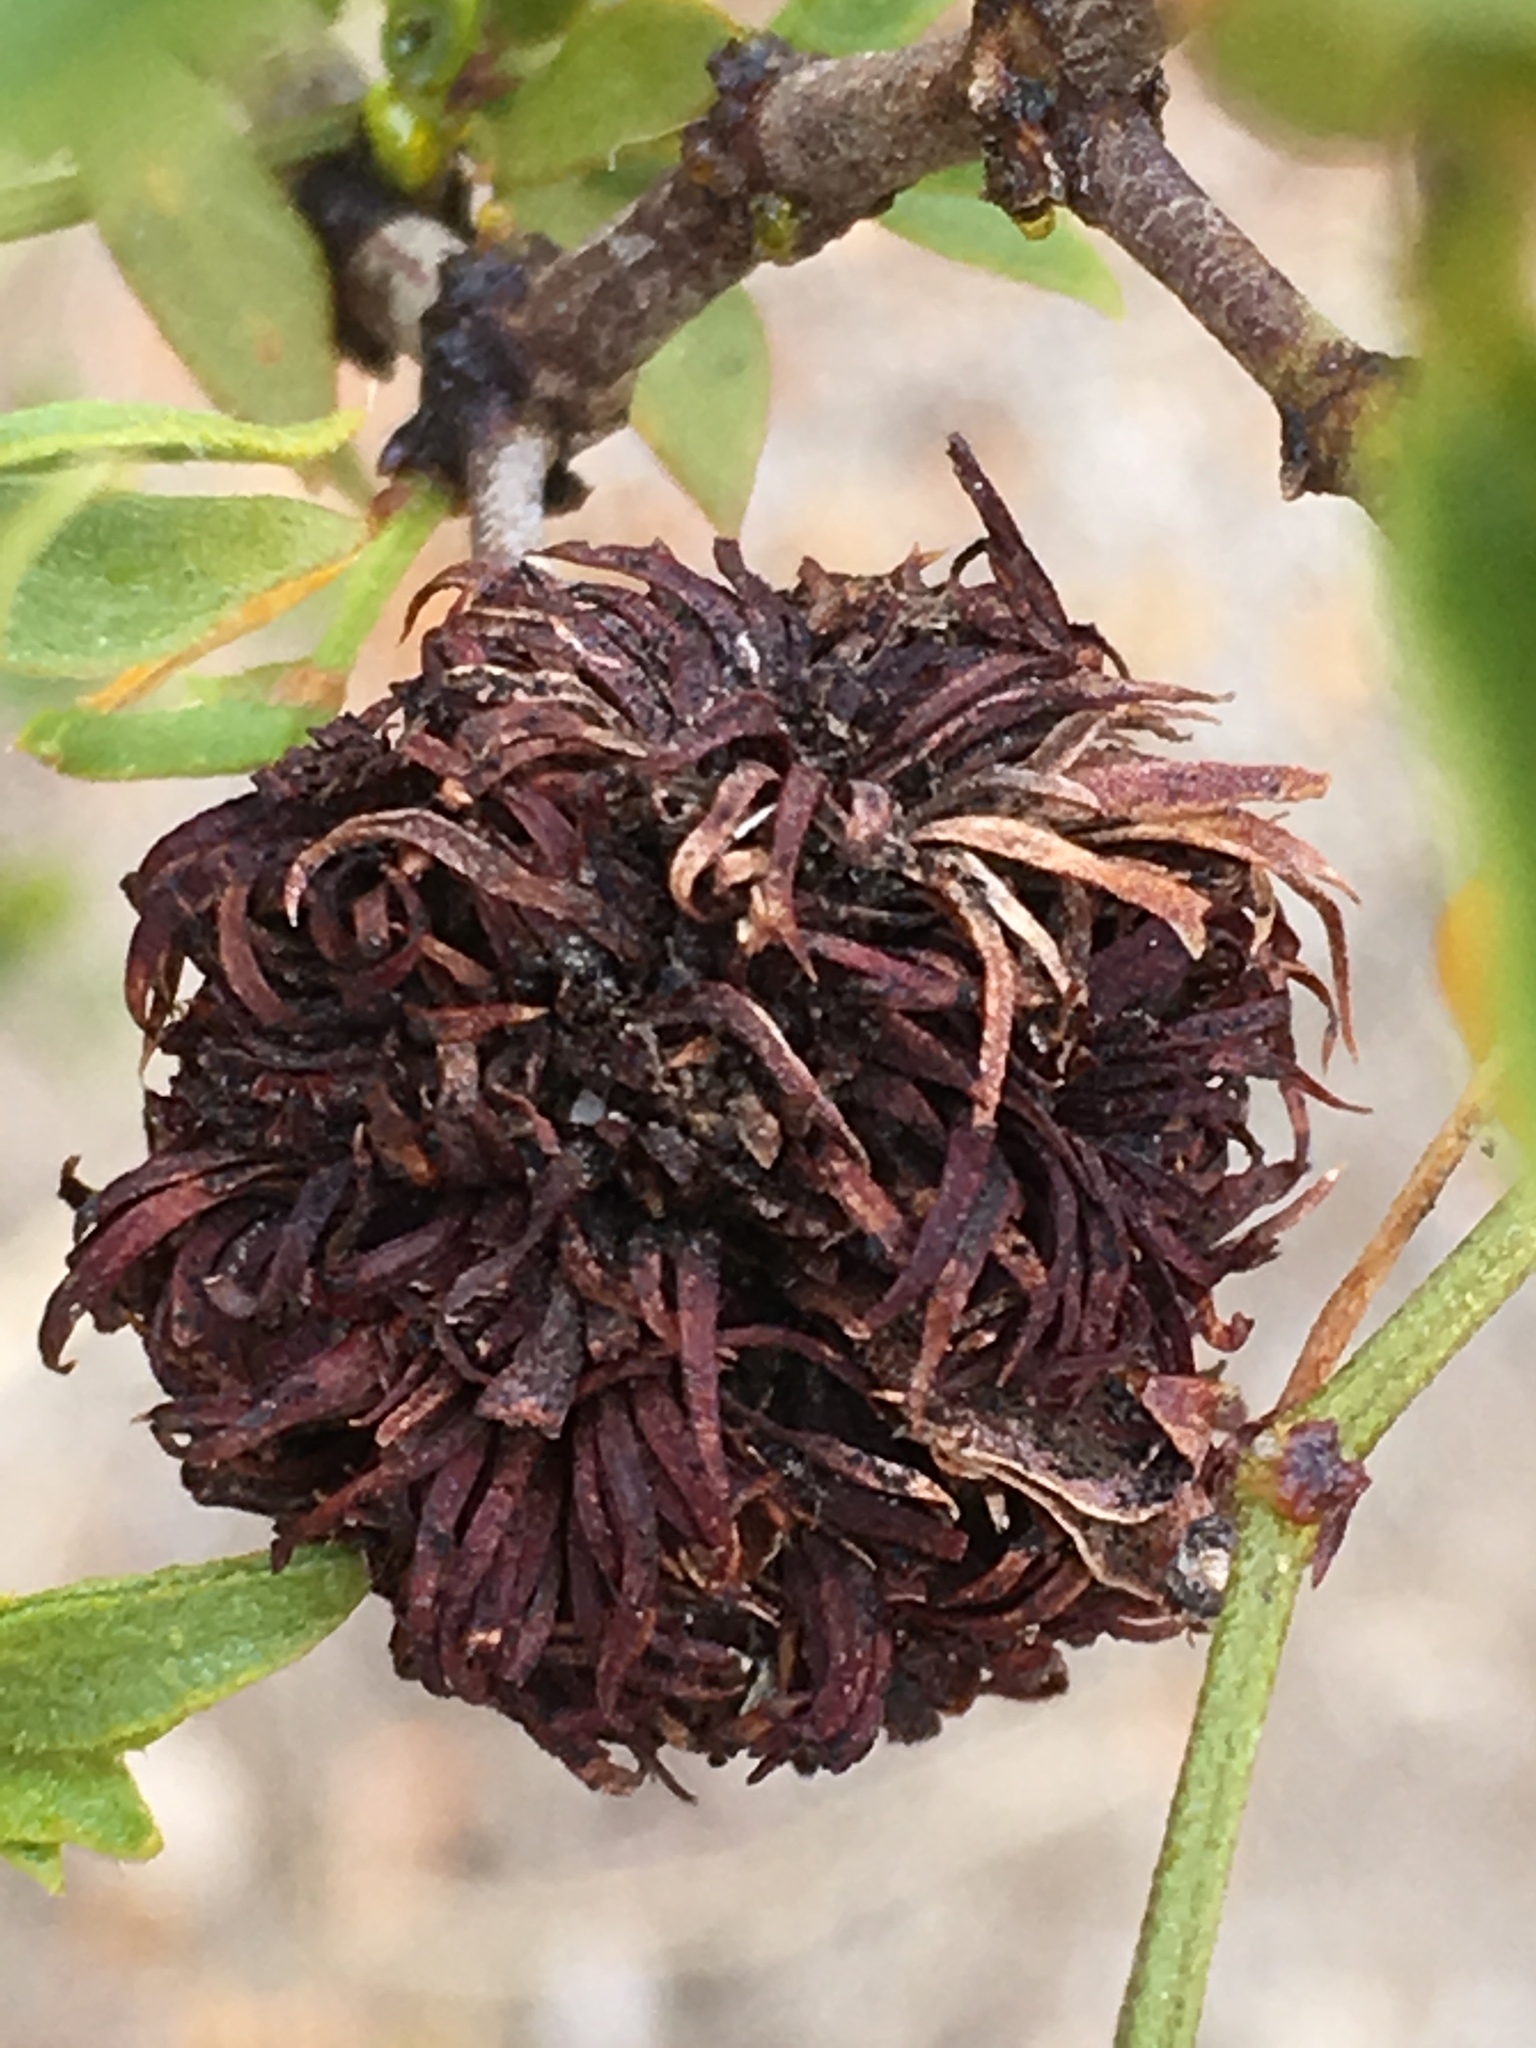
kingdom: Animalia
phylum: Arthropoda
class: Insecta
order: Diptera
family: Cecidomyiidae
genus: Asphondylia
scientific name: Asphondylia auripila
